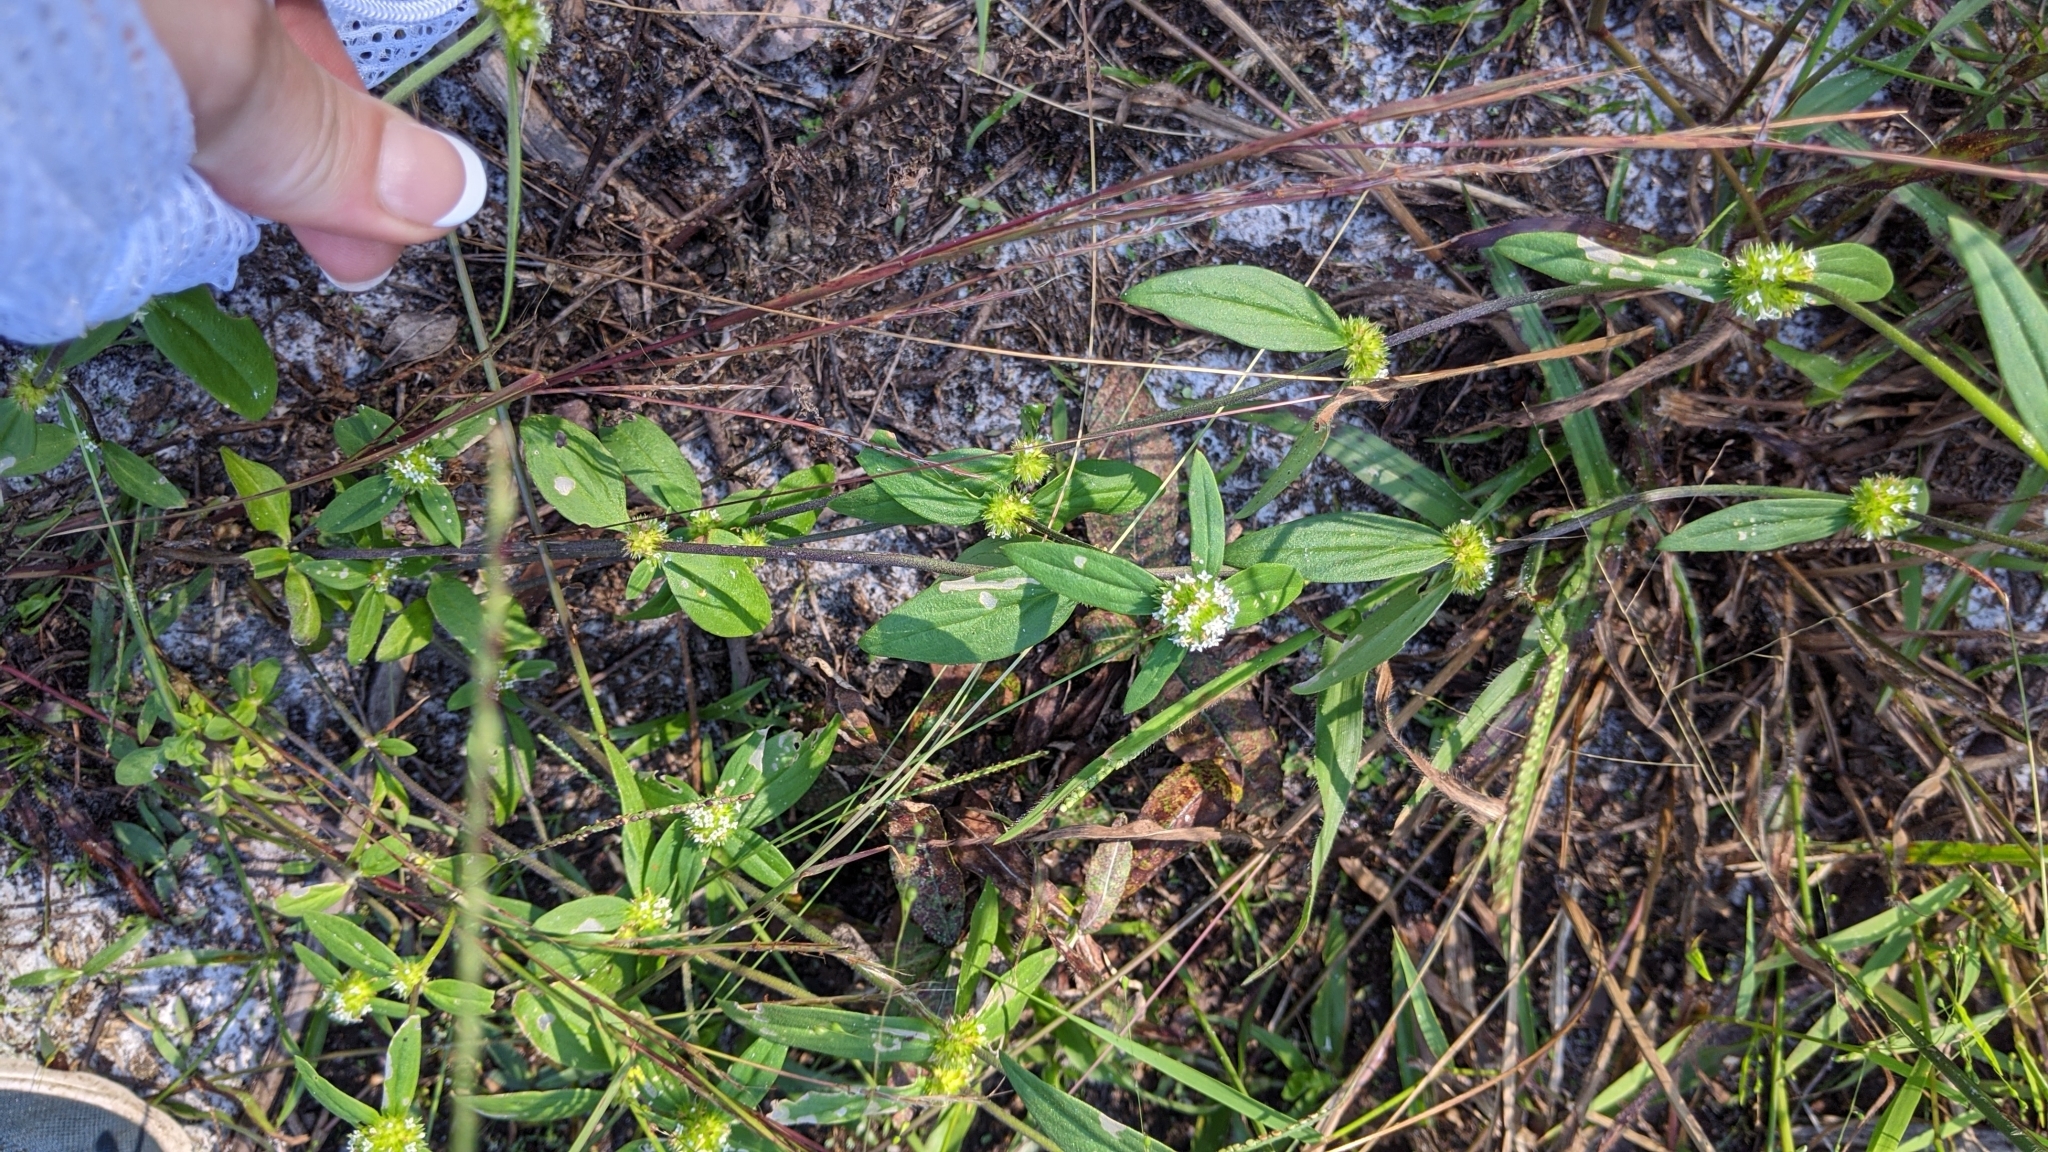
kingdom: Plantae
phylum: Tracheophyta
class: Magnoliopsida
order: Gentianales
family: Rubiaceae
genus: Spermacoce
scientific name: Spermacoce verticillata
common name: Shrubby false buttonweed
